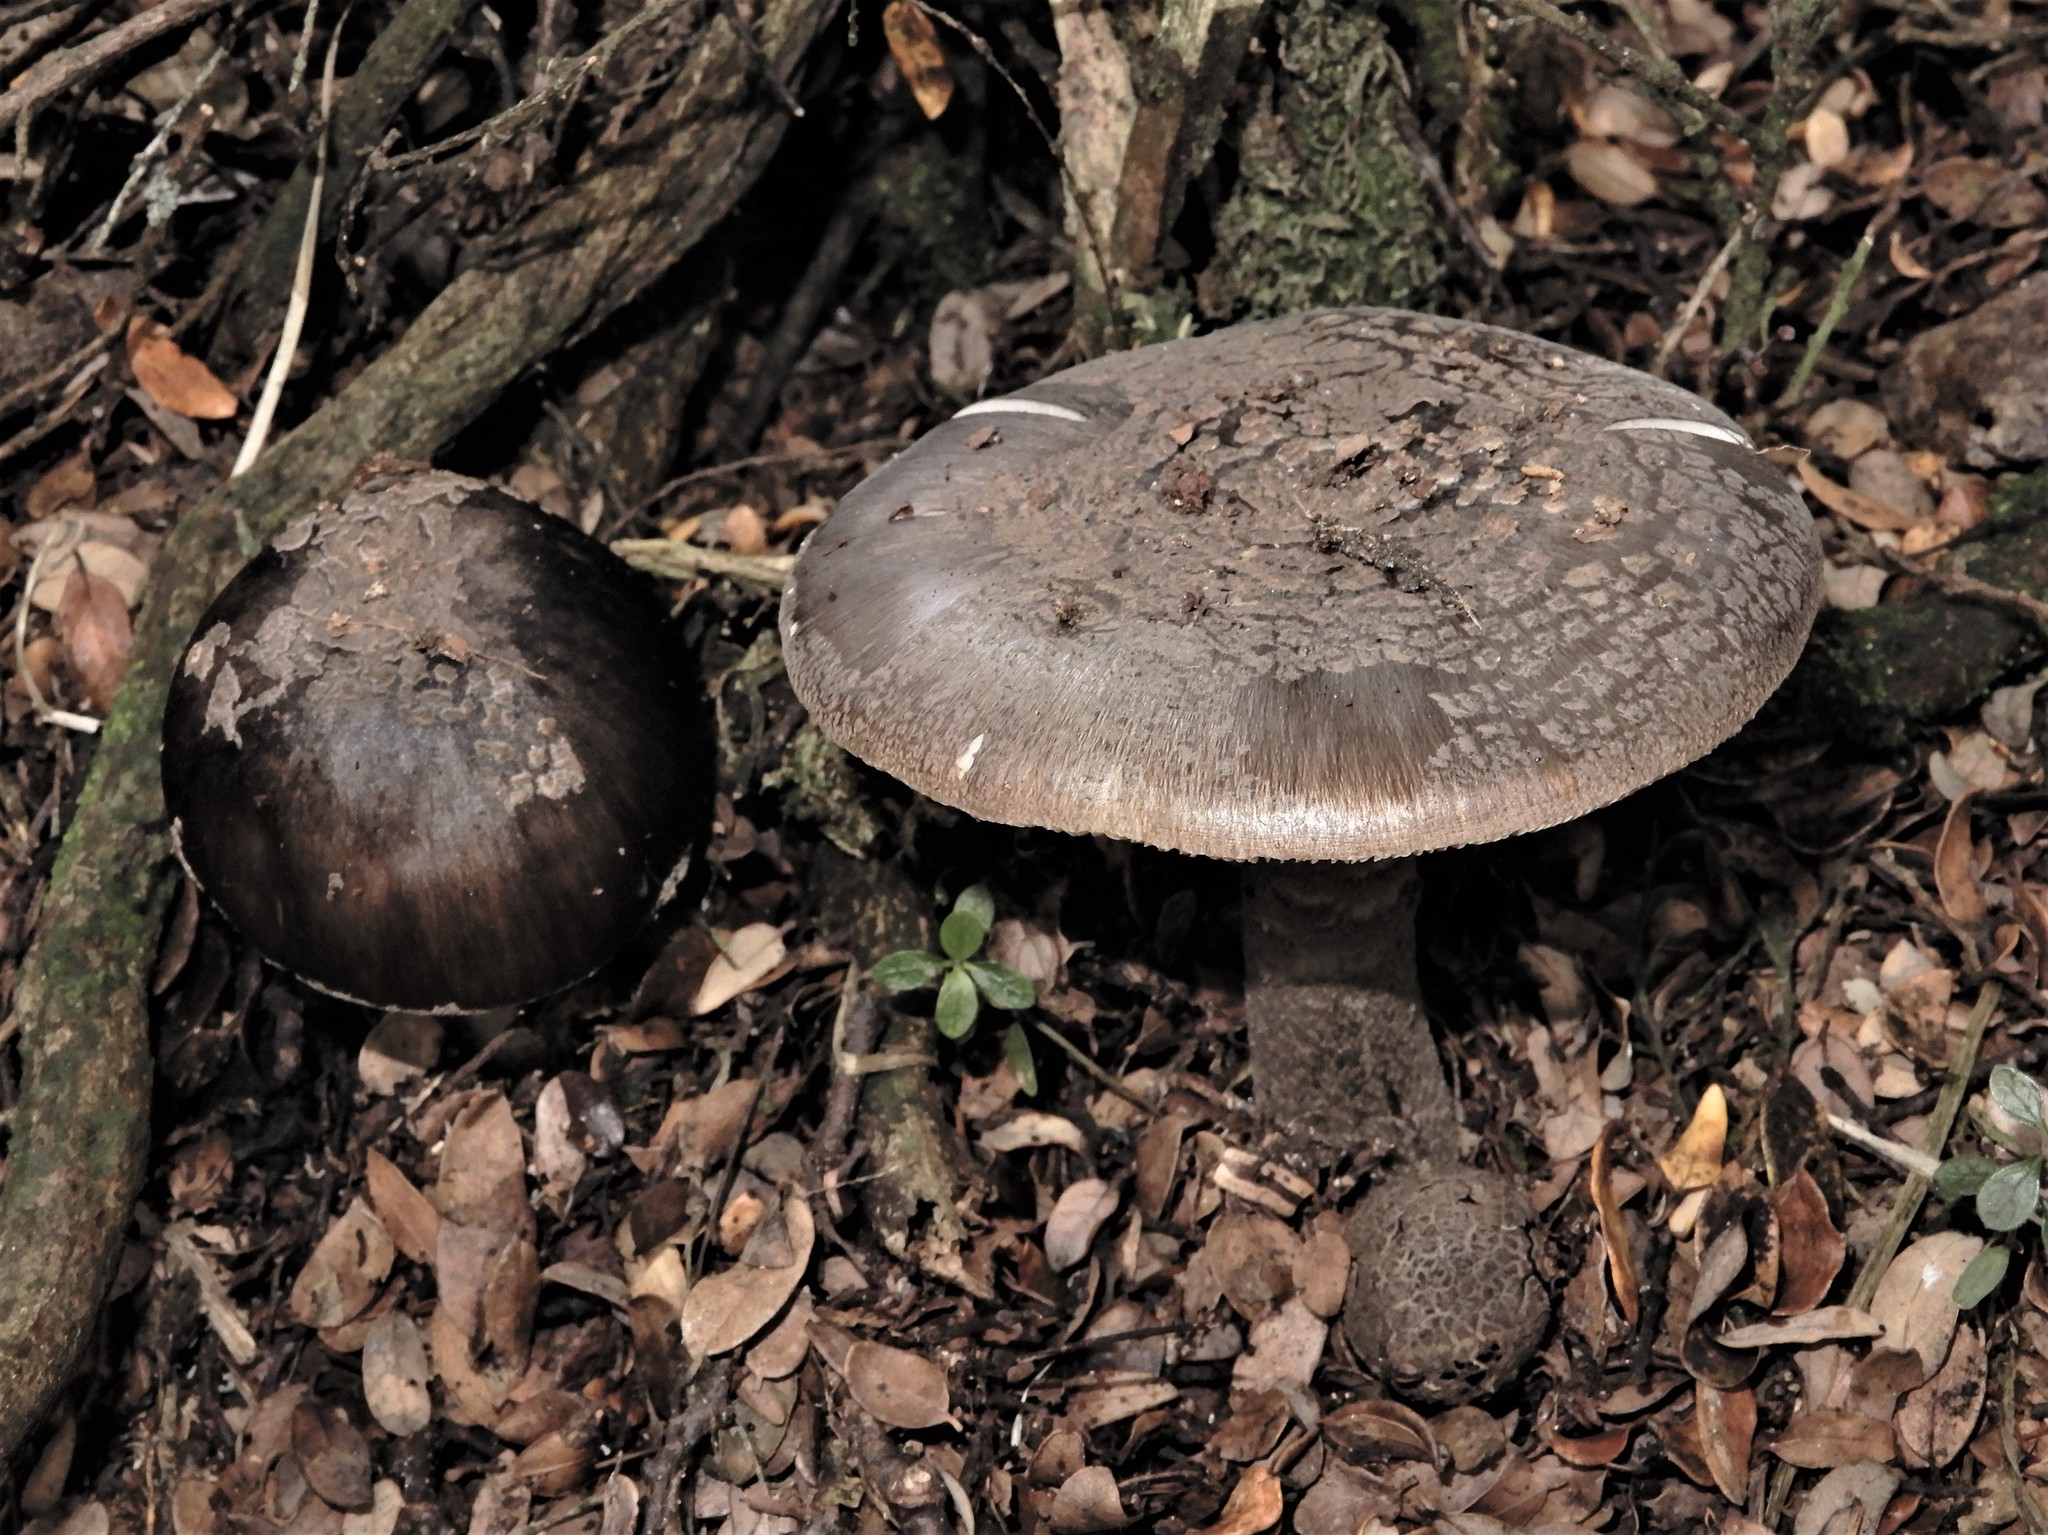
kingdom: Fungi
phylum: Basidiomycota
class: Agaricomycetes
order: Agaricales
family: Amanitaceae
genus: Amanita
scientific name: Amanita nothofagi
